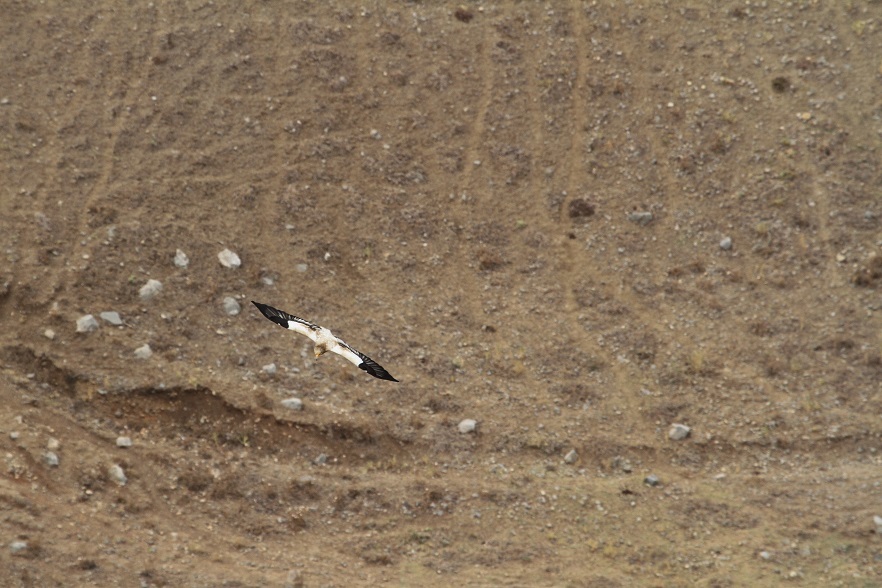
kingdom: Animalia
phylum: Chordata
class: Aves
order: Accipitriformes
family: Accipitridae
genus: Neophron
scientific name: Neophron percnopterus
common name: Egyptian vulture
